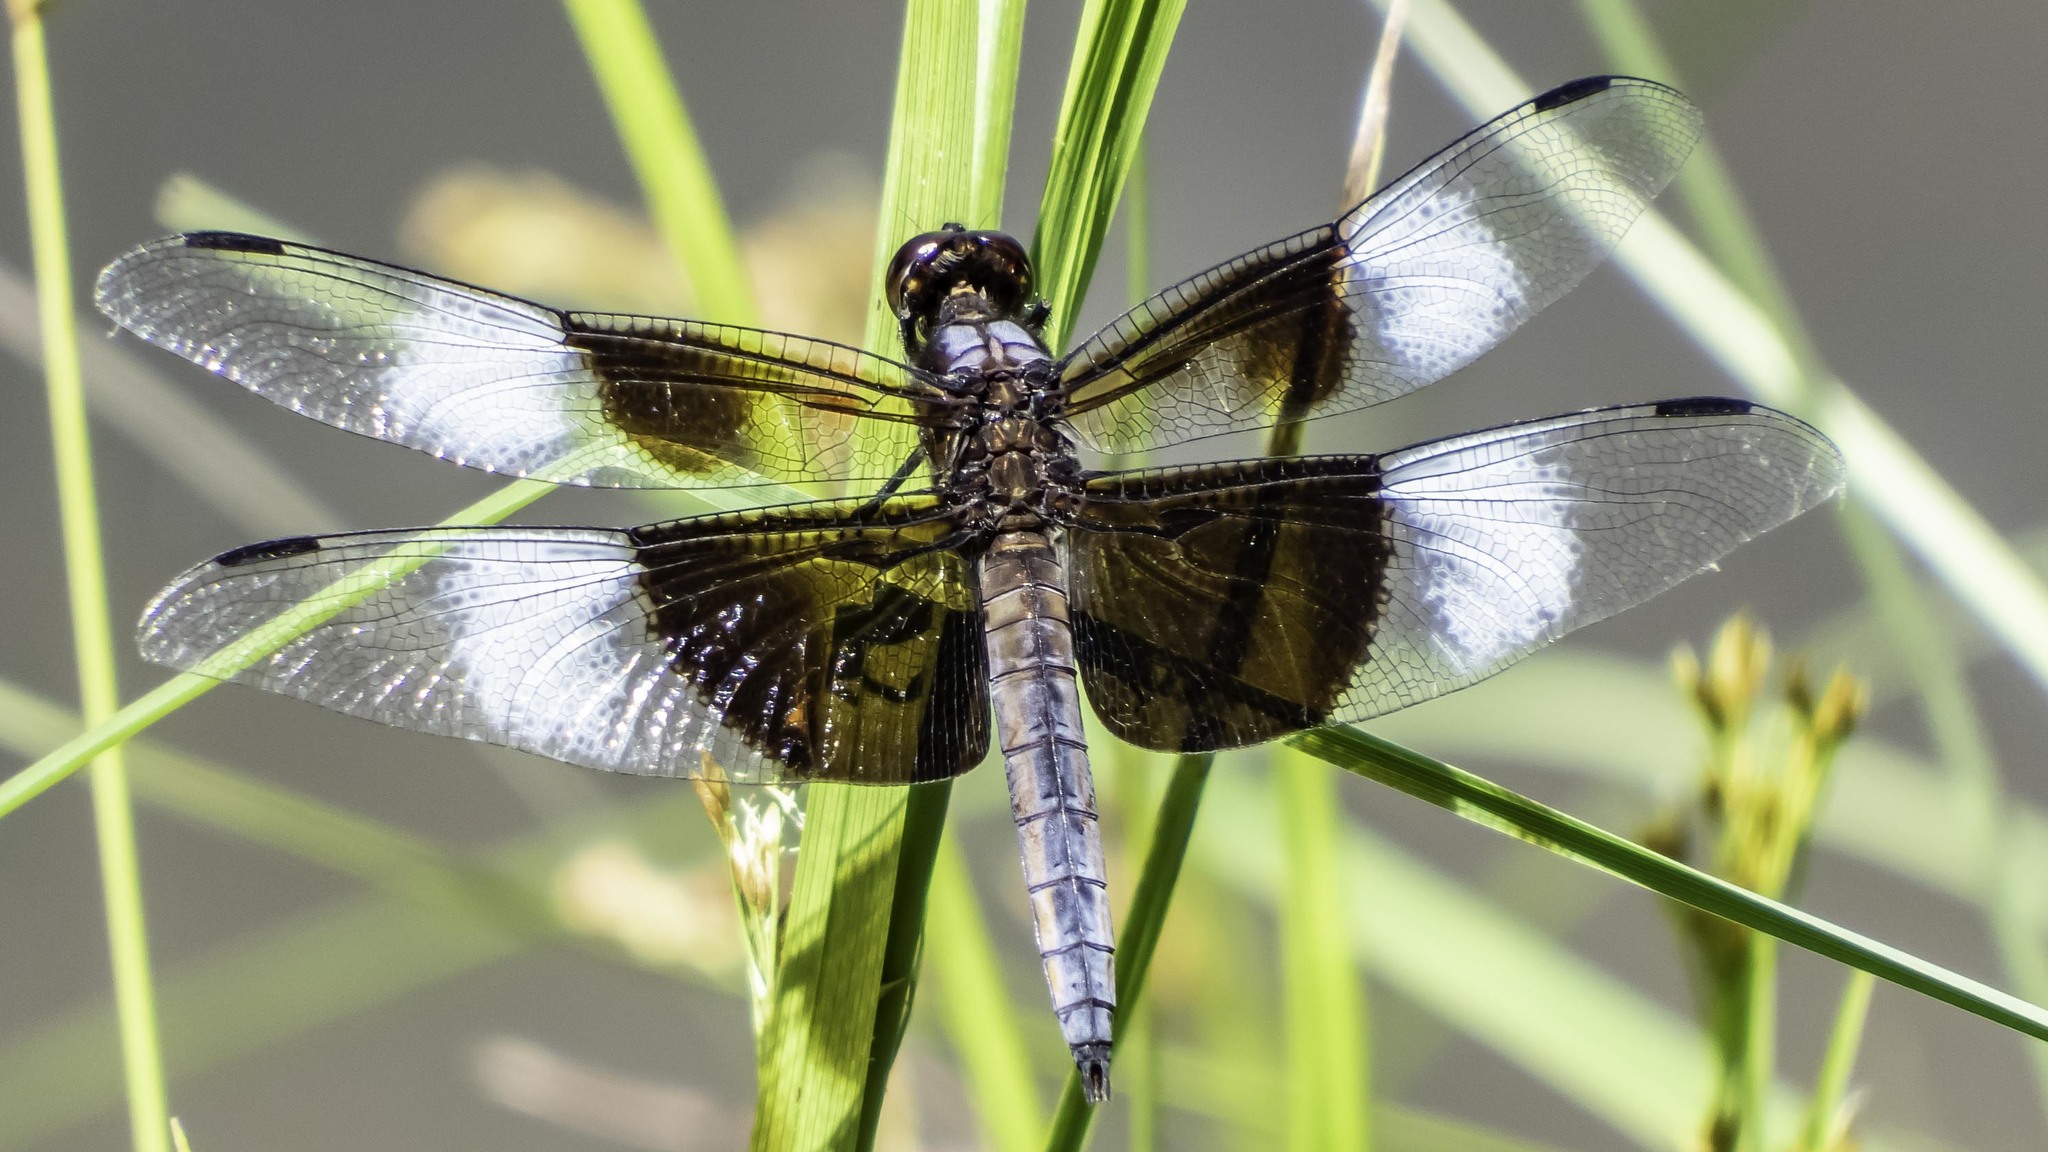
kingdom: Animalia
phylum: Arthropoda
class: Insecta
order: Odonata
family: Libellulidae
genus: Libellula
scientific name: Libellula luctuosa
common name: Widow skimmer
